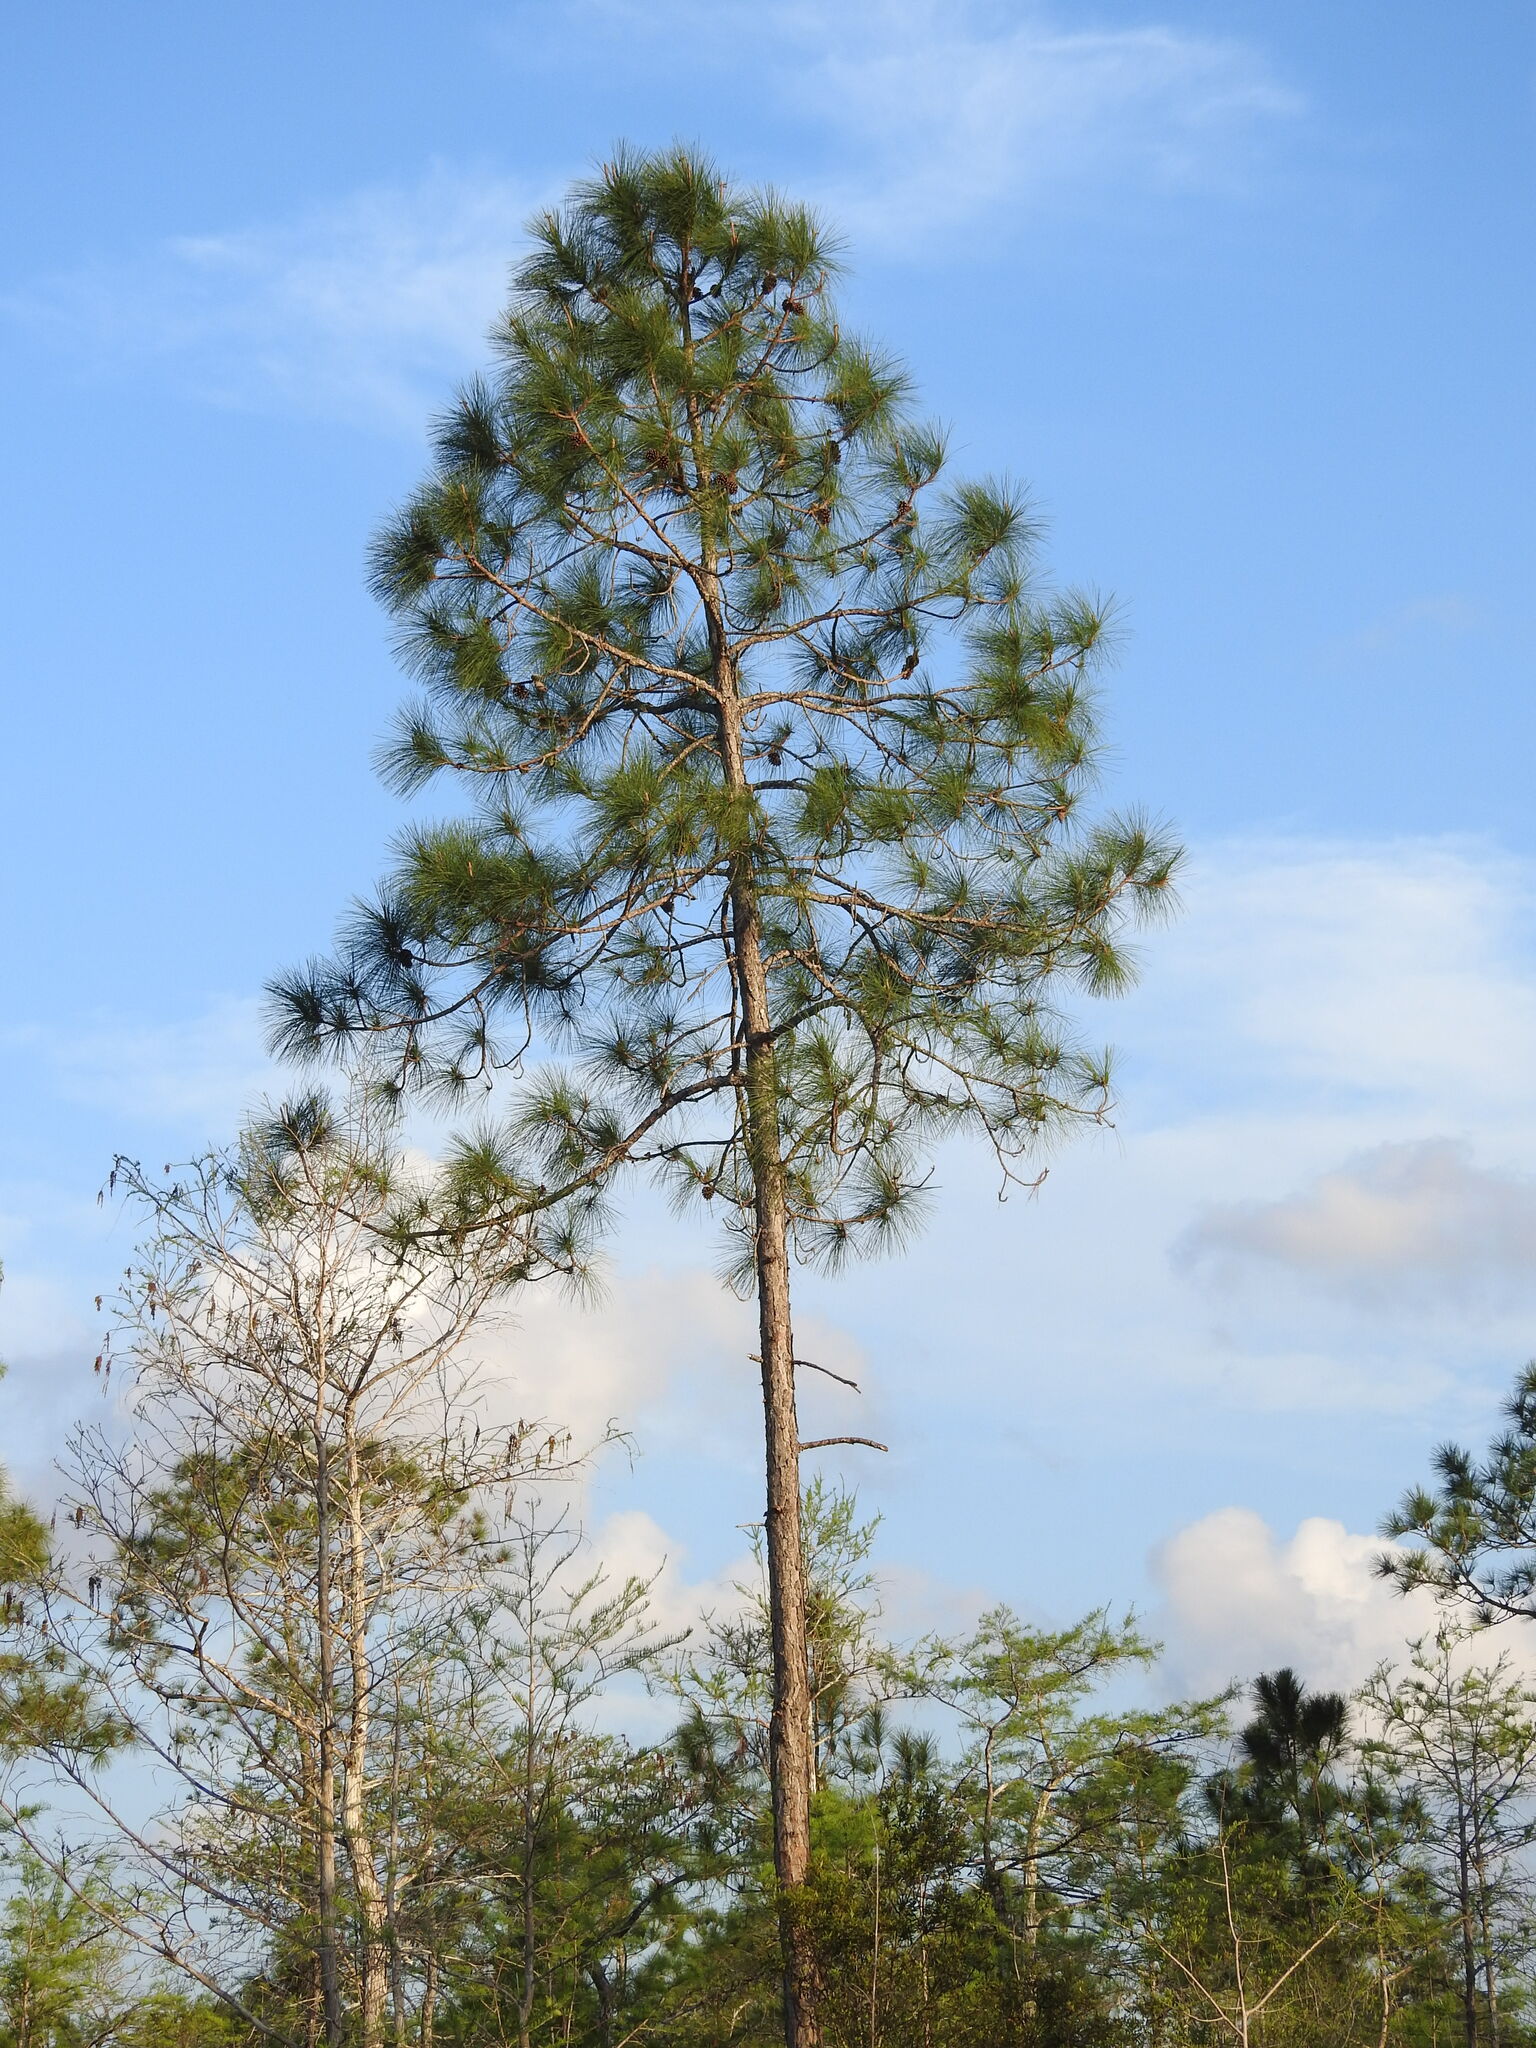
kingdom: Plantae
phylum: Tracheophyta
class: Pinopsida
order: Pinales
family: Pinaceae
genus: Pinus
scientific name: Pinus elliottii
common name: Slash pine
